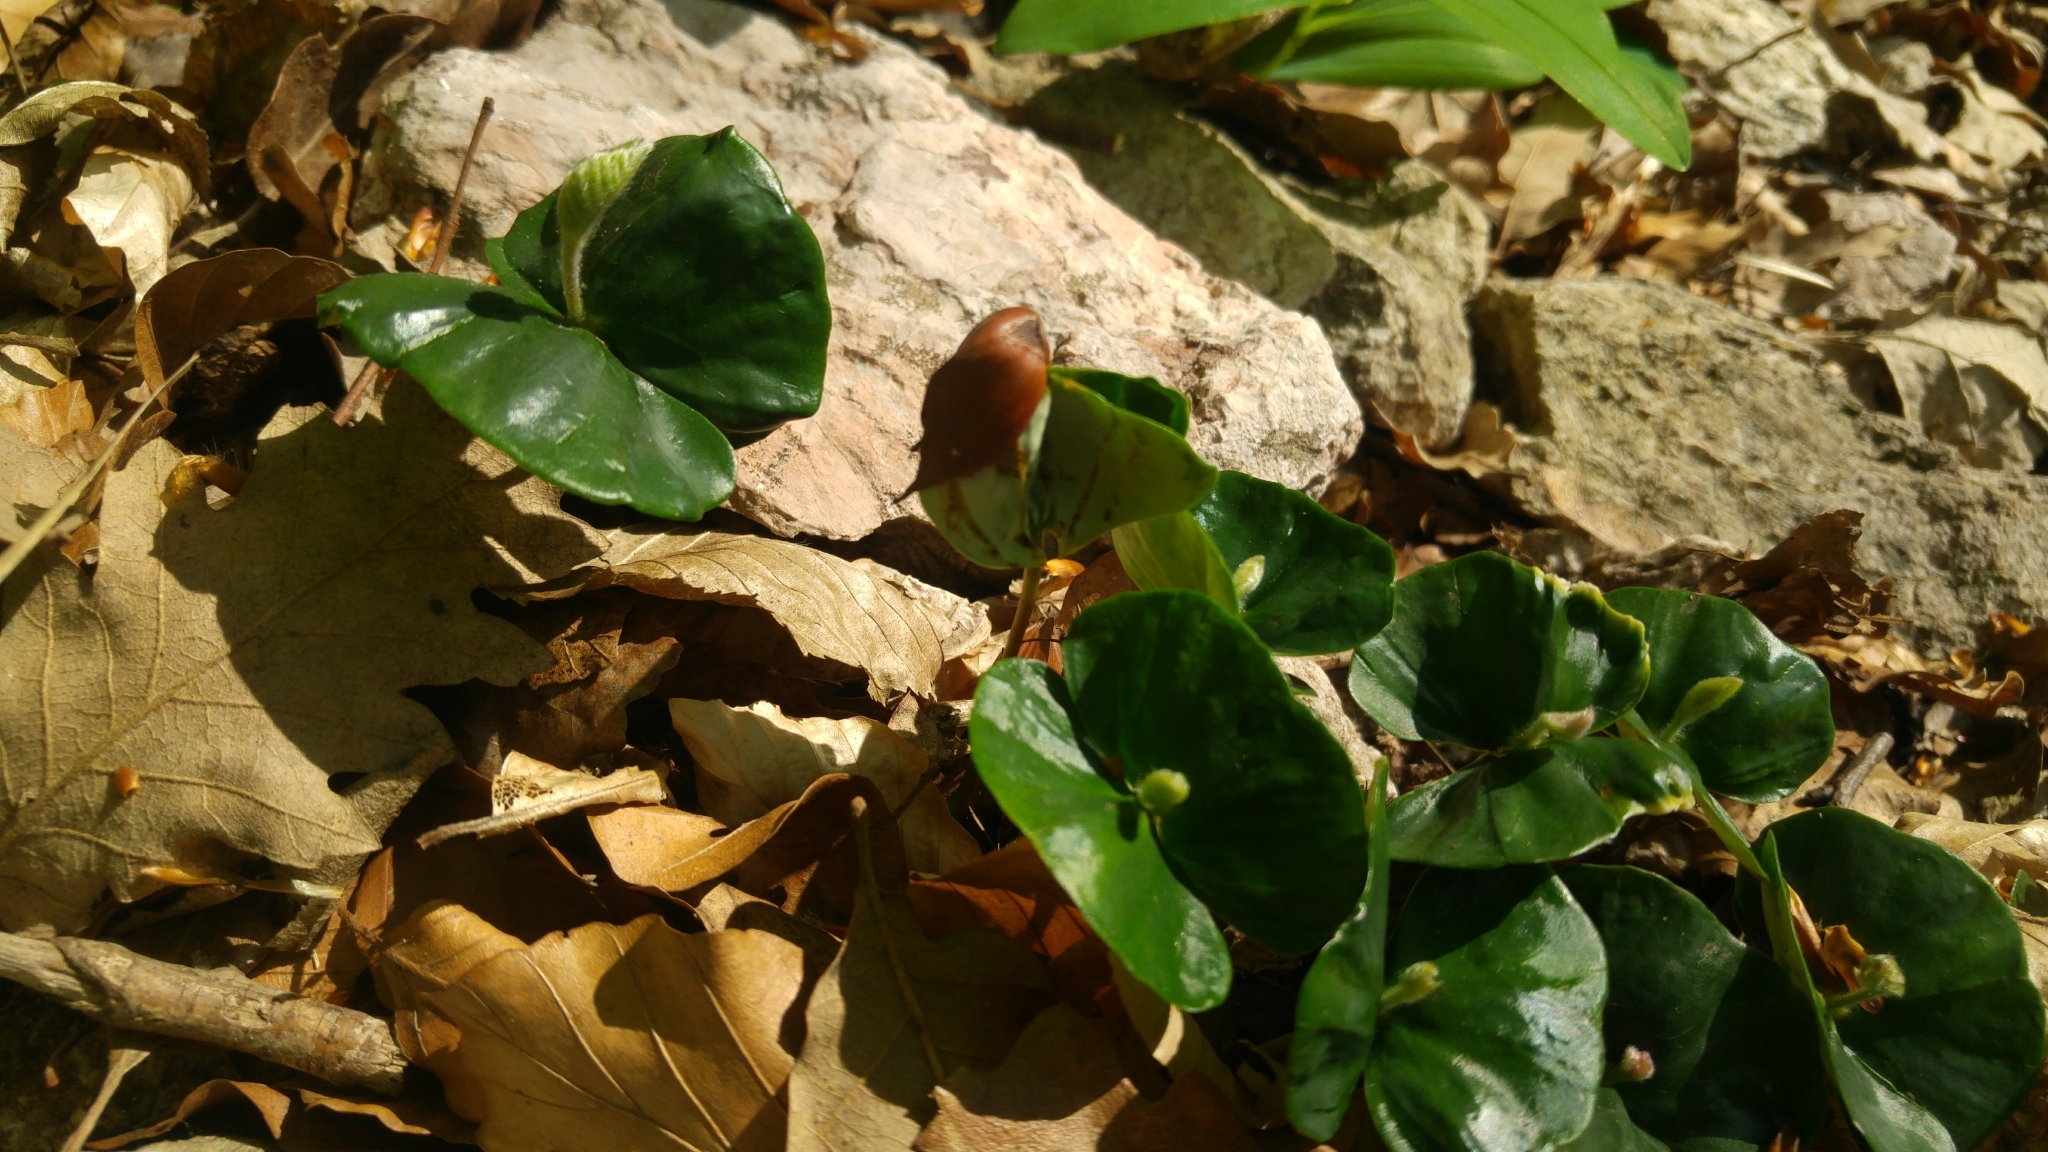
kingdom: Plantae
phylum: Tracheophyta
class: Magnoliopsida
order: Fagales
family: Fagaceae
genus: Fagus
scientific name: Fagus sylvatica
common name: Beech
